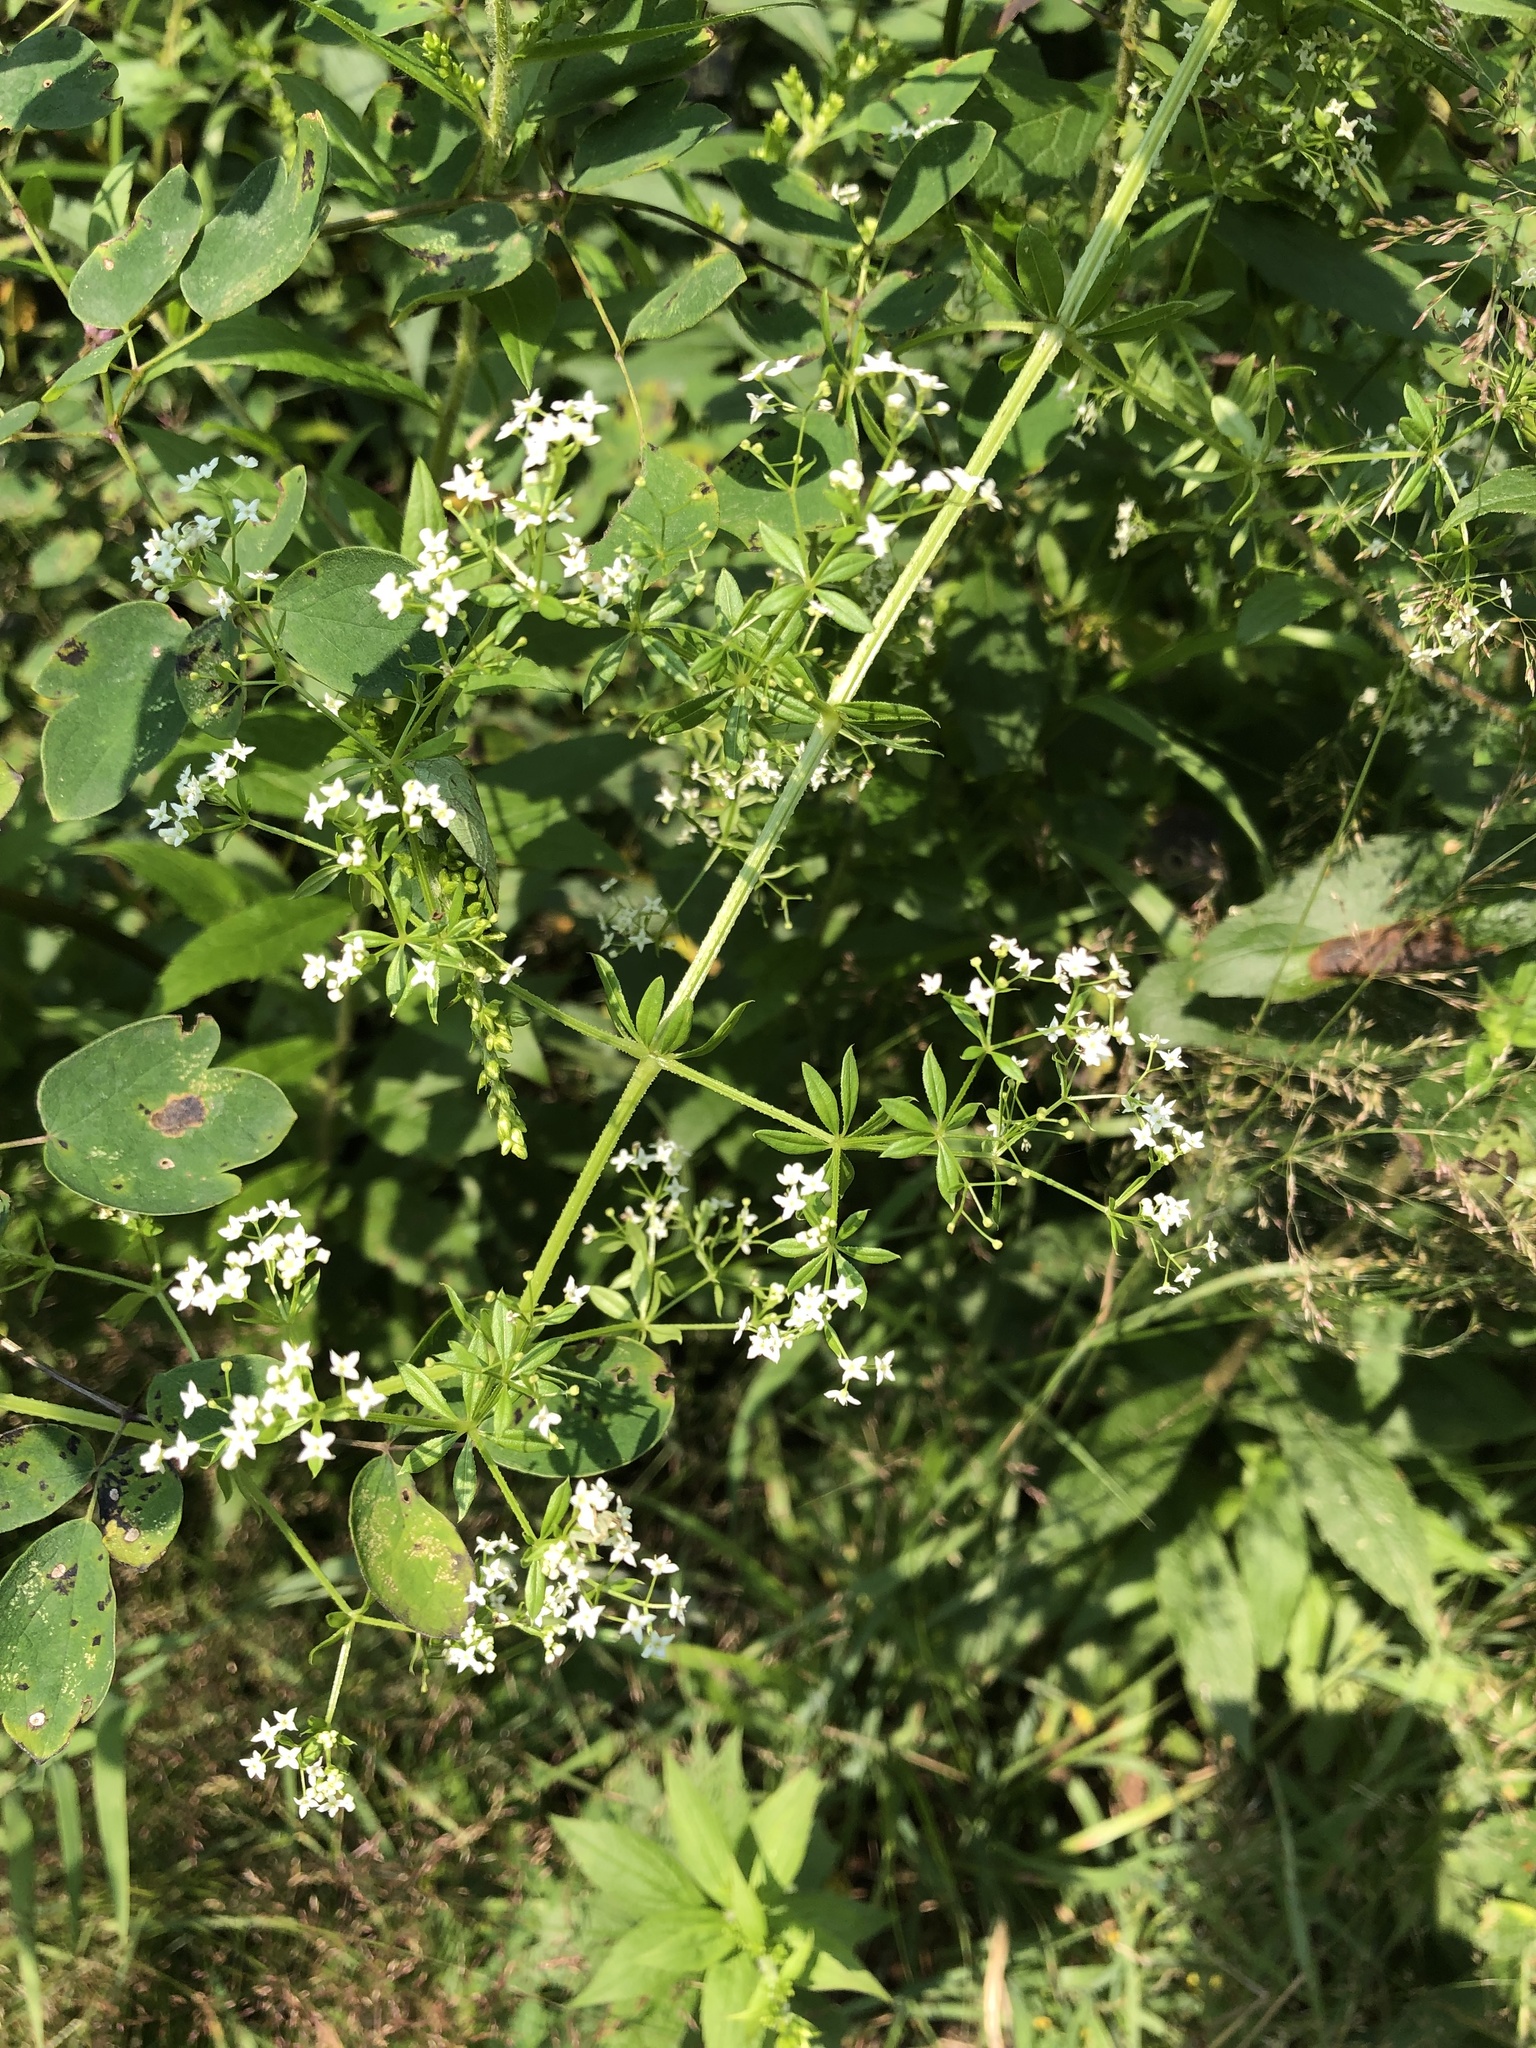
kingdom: Plantae
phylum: Tracheophyta
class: Magnoliopsida
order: Gentianales
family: Rubiaceae
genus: Galium
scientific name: Galium asprellum
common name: Rough bedstraw
